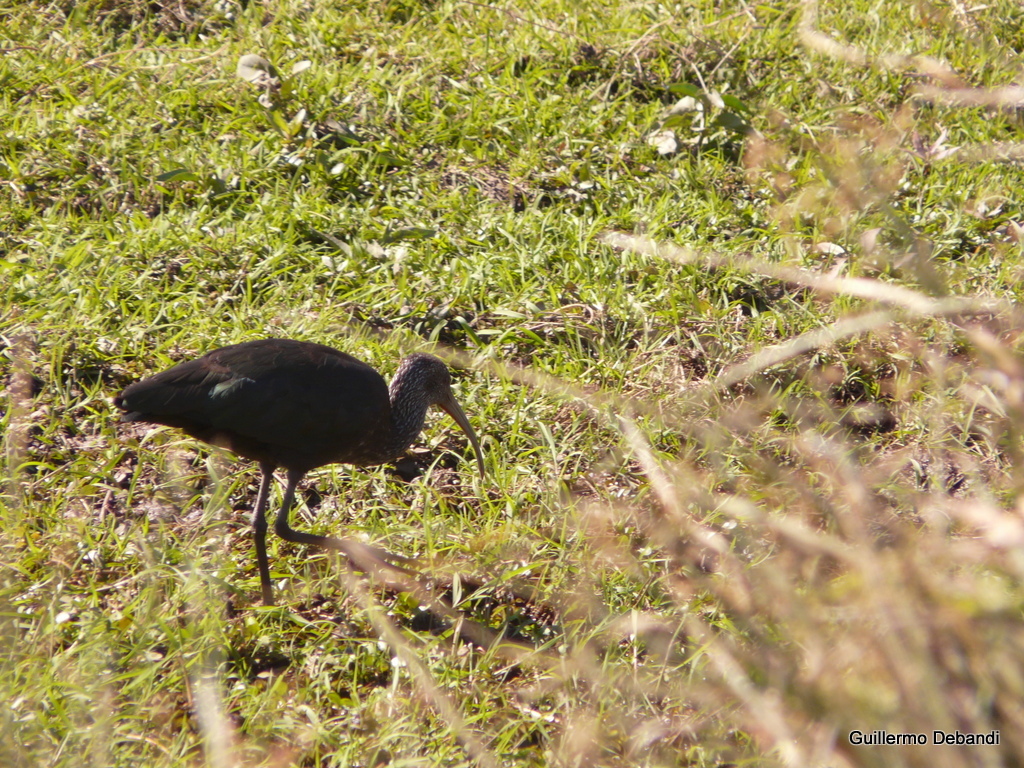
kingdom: Animalia
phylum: Chordata
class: Aves
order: Pelecaniformes
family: Threskiornithidae
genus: Plegadis
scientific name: Plegadis chihi
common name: White-faced ibis
